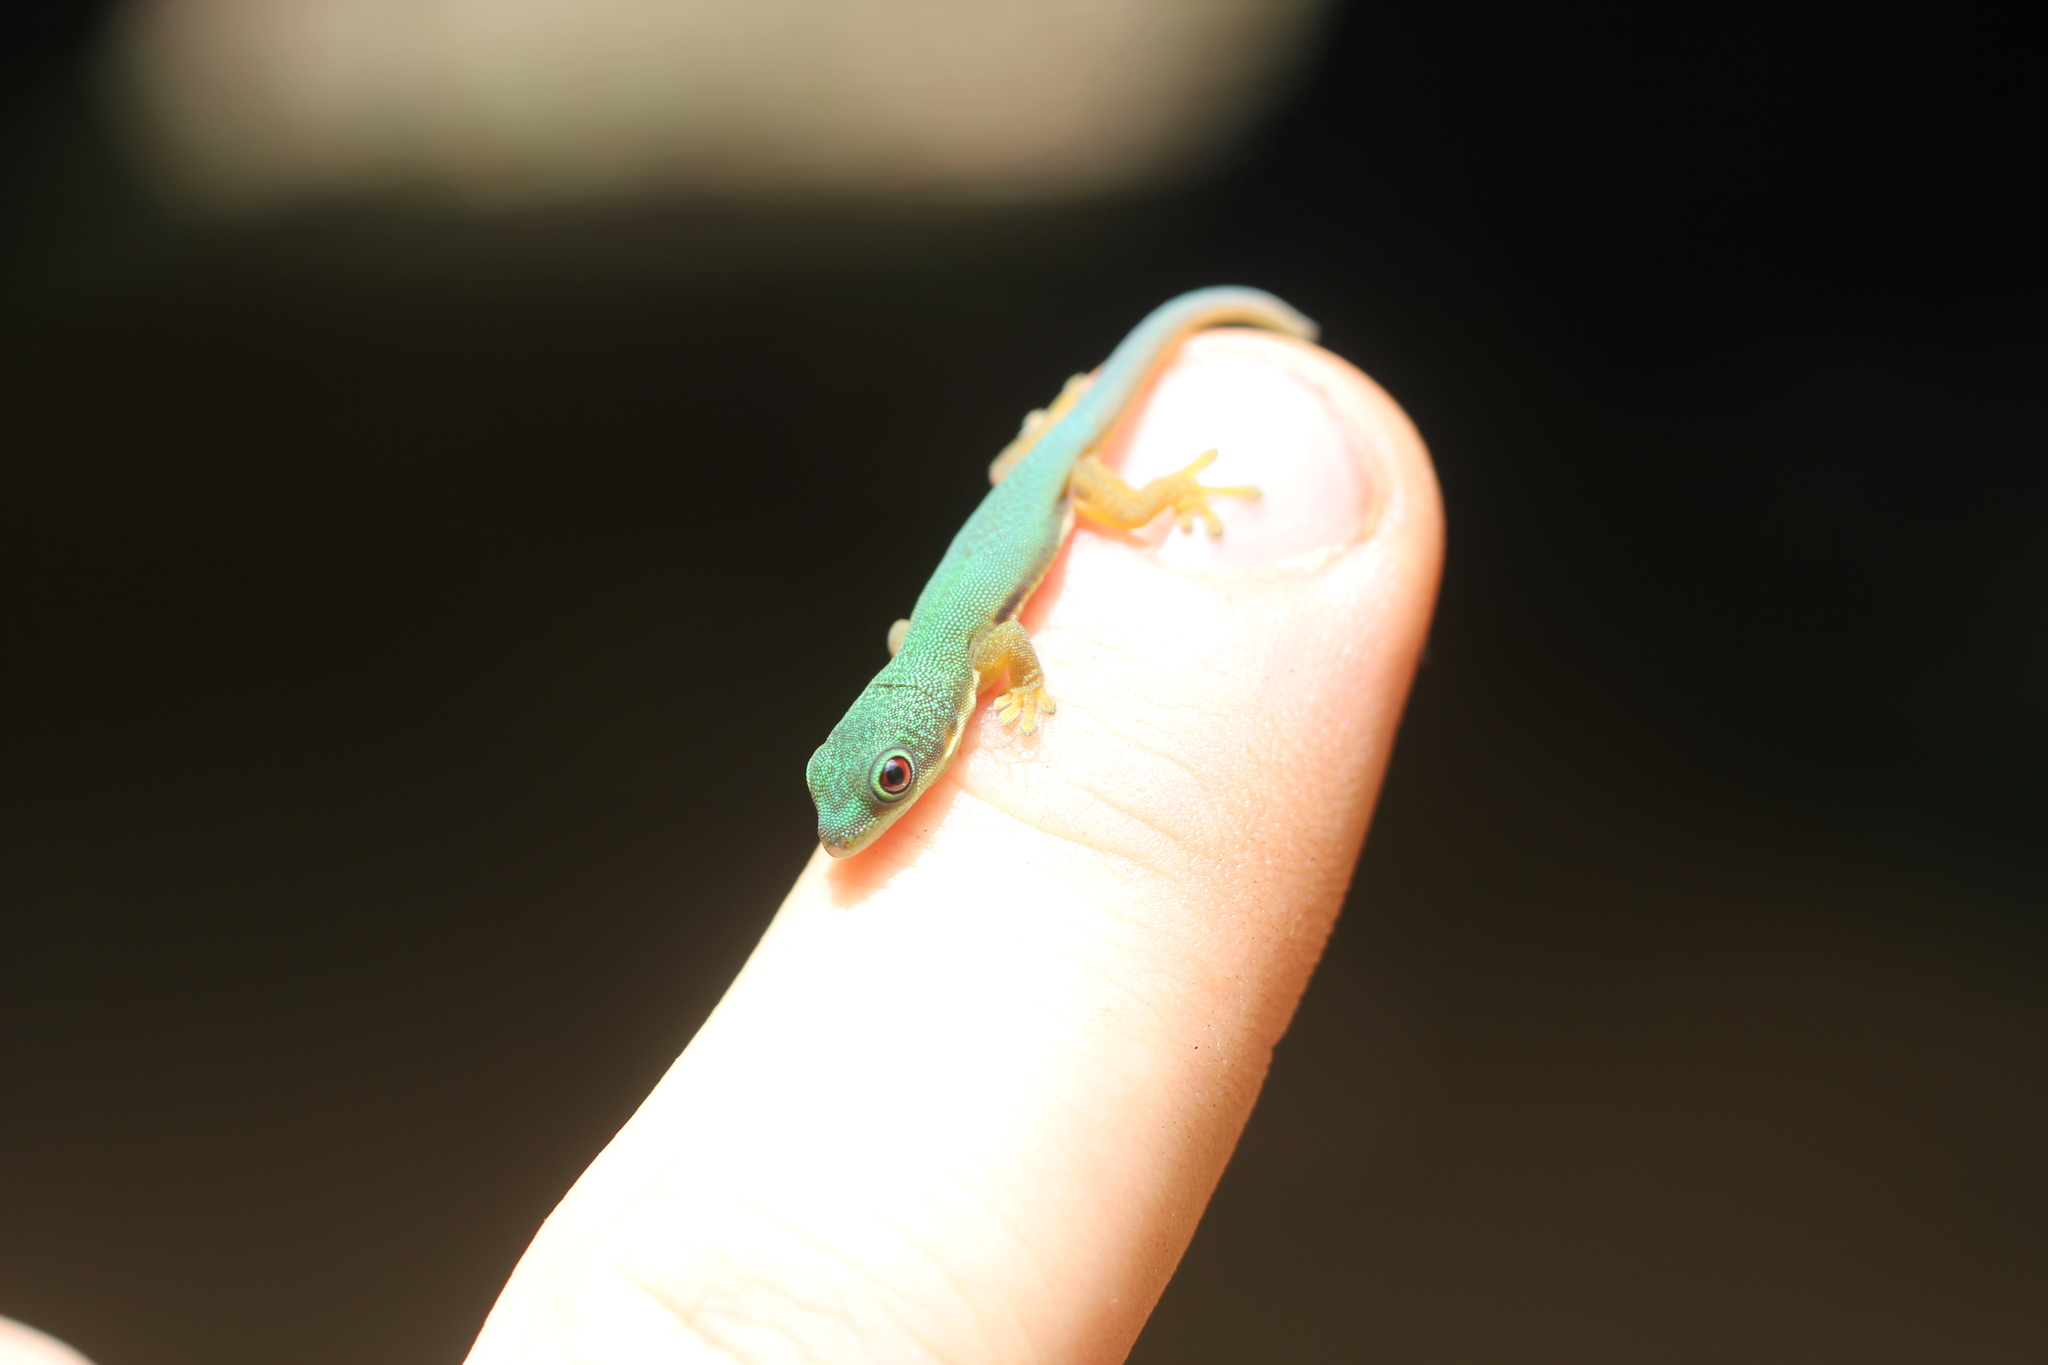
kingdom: Animalia
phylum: Chordata
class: Squamata
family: Gekkonidae
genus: Phelsuma
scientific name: Phelsuma lineata
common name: Lined day gecko
